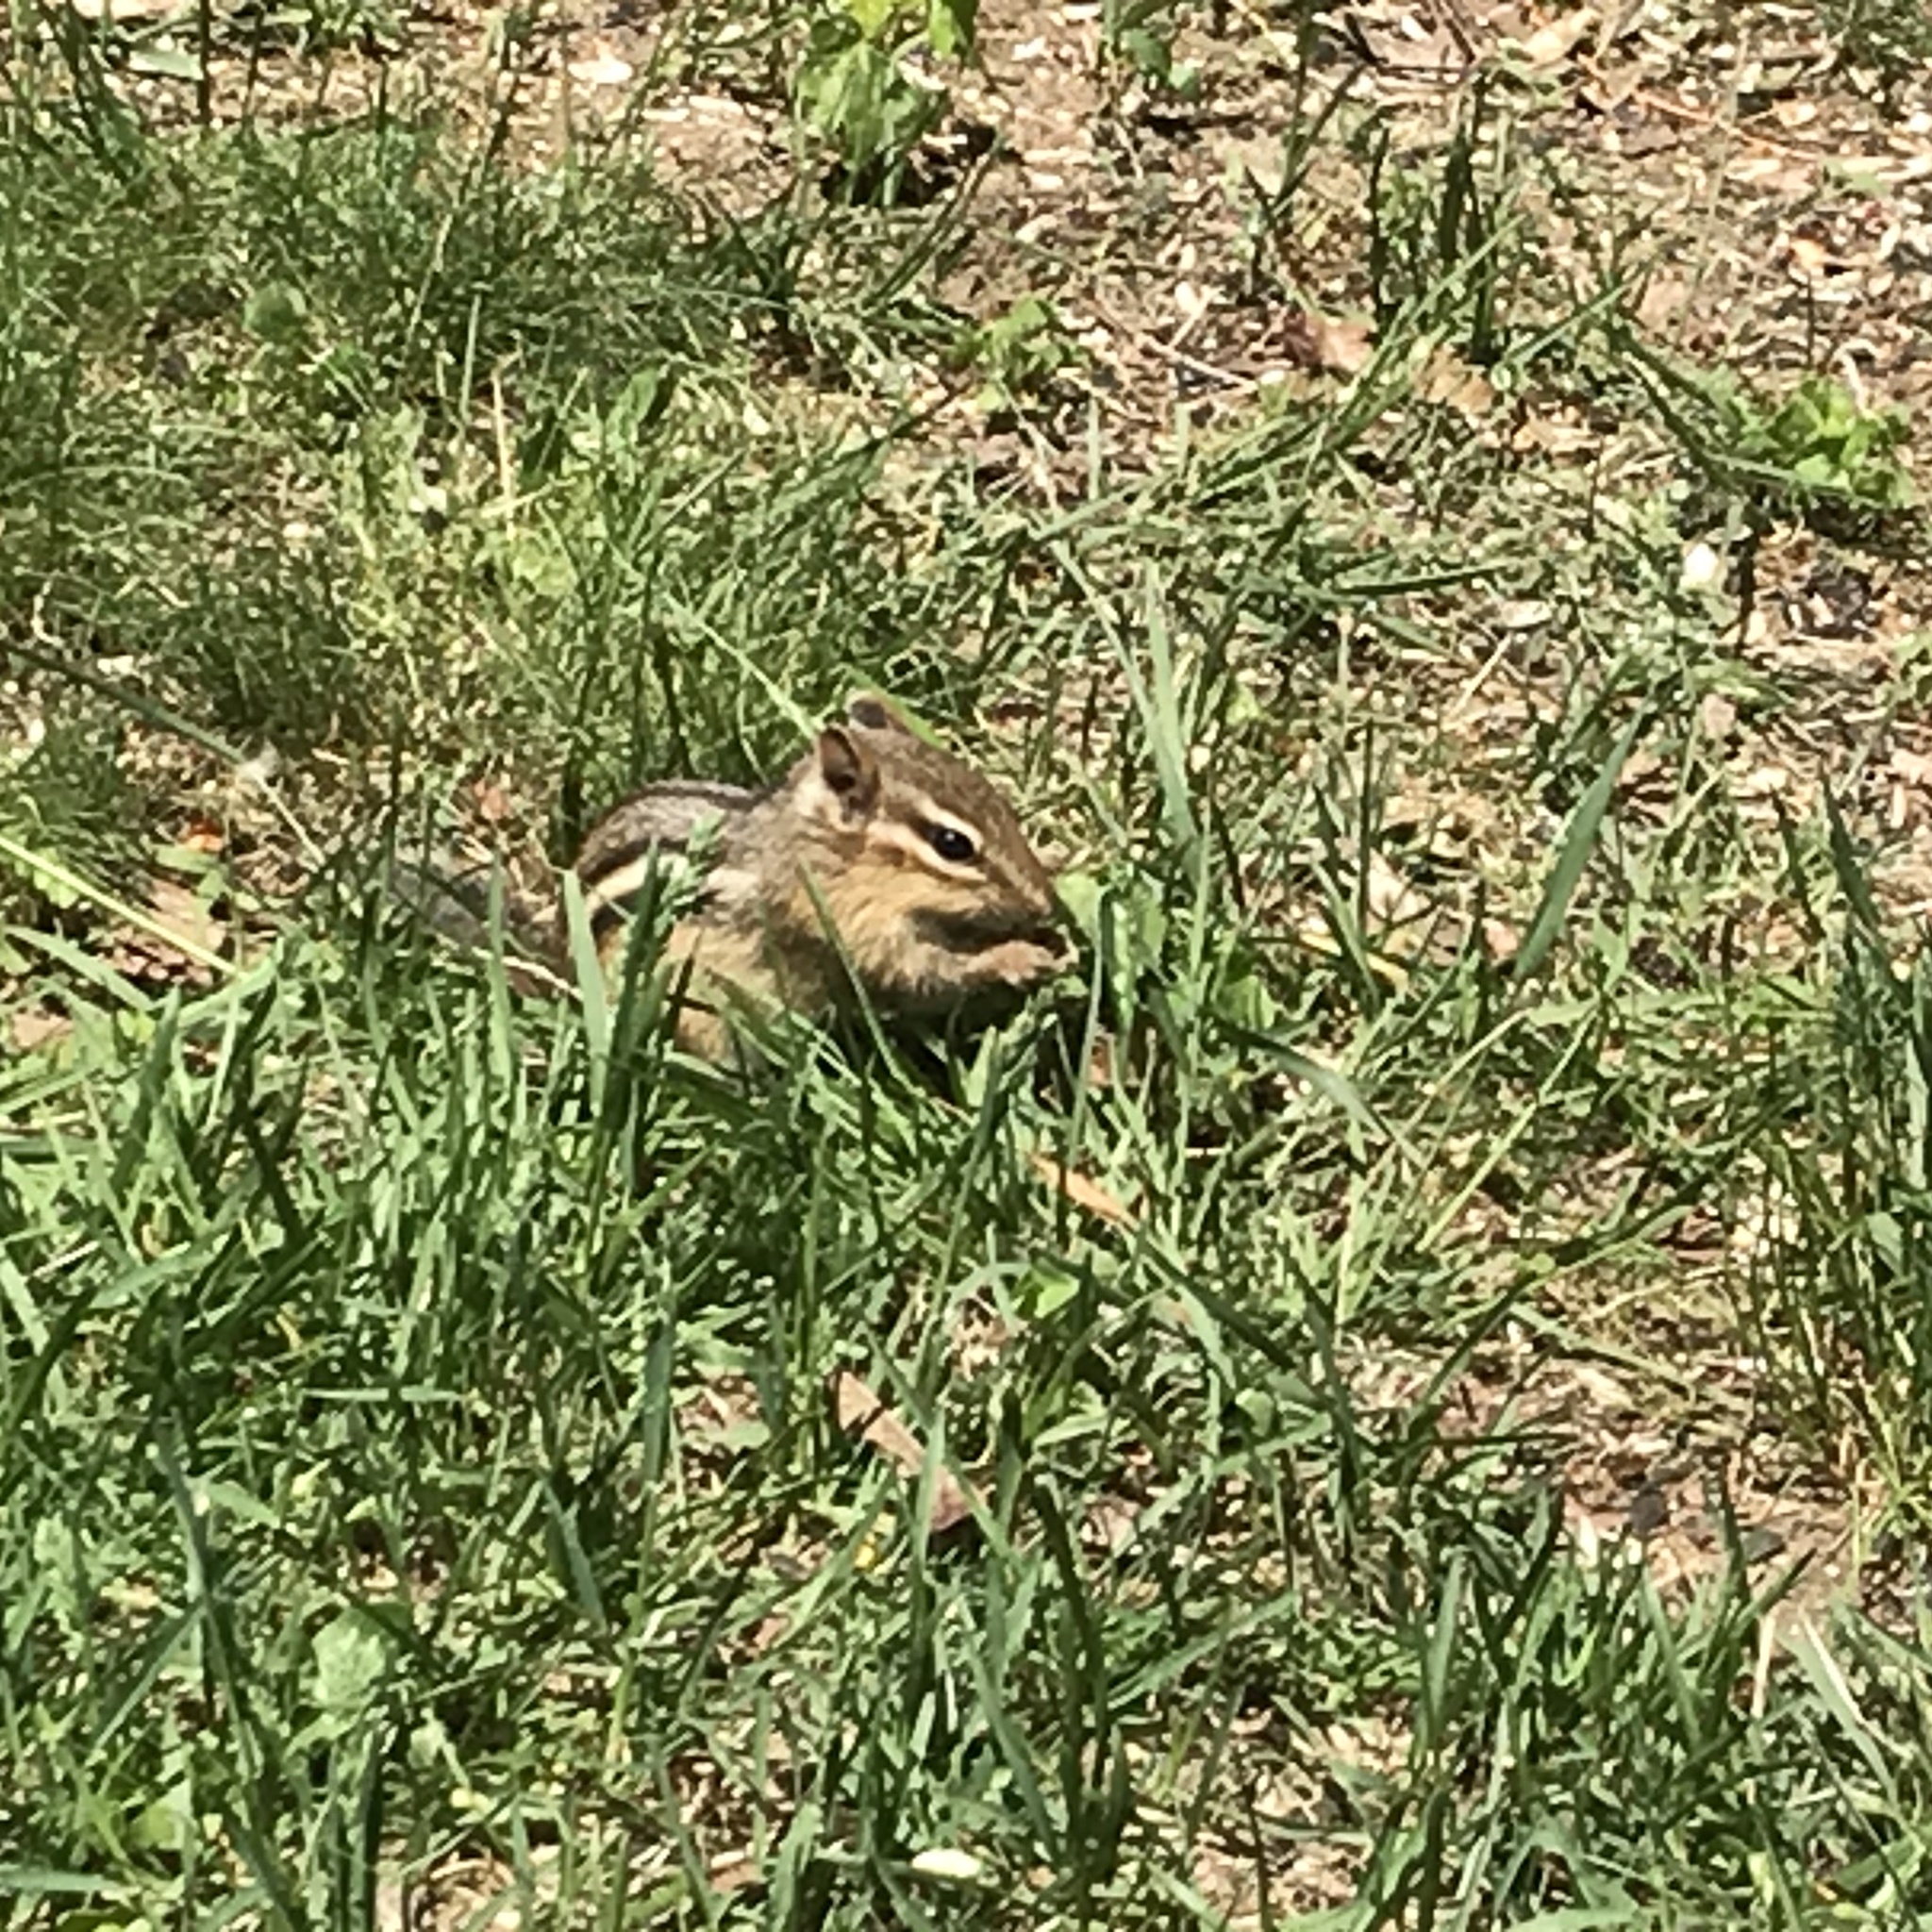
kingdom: Animalia
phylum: Chordata
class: Mammalia
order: Rodentia
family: Sciuridae
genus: Tamias
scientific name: Tamias striatus
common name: Eastern chipmunk
